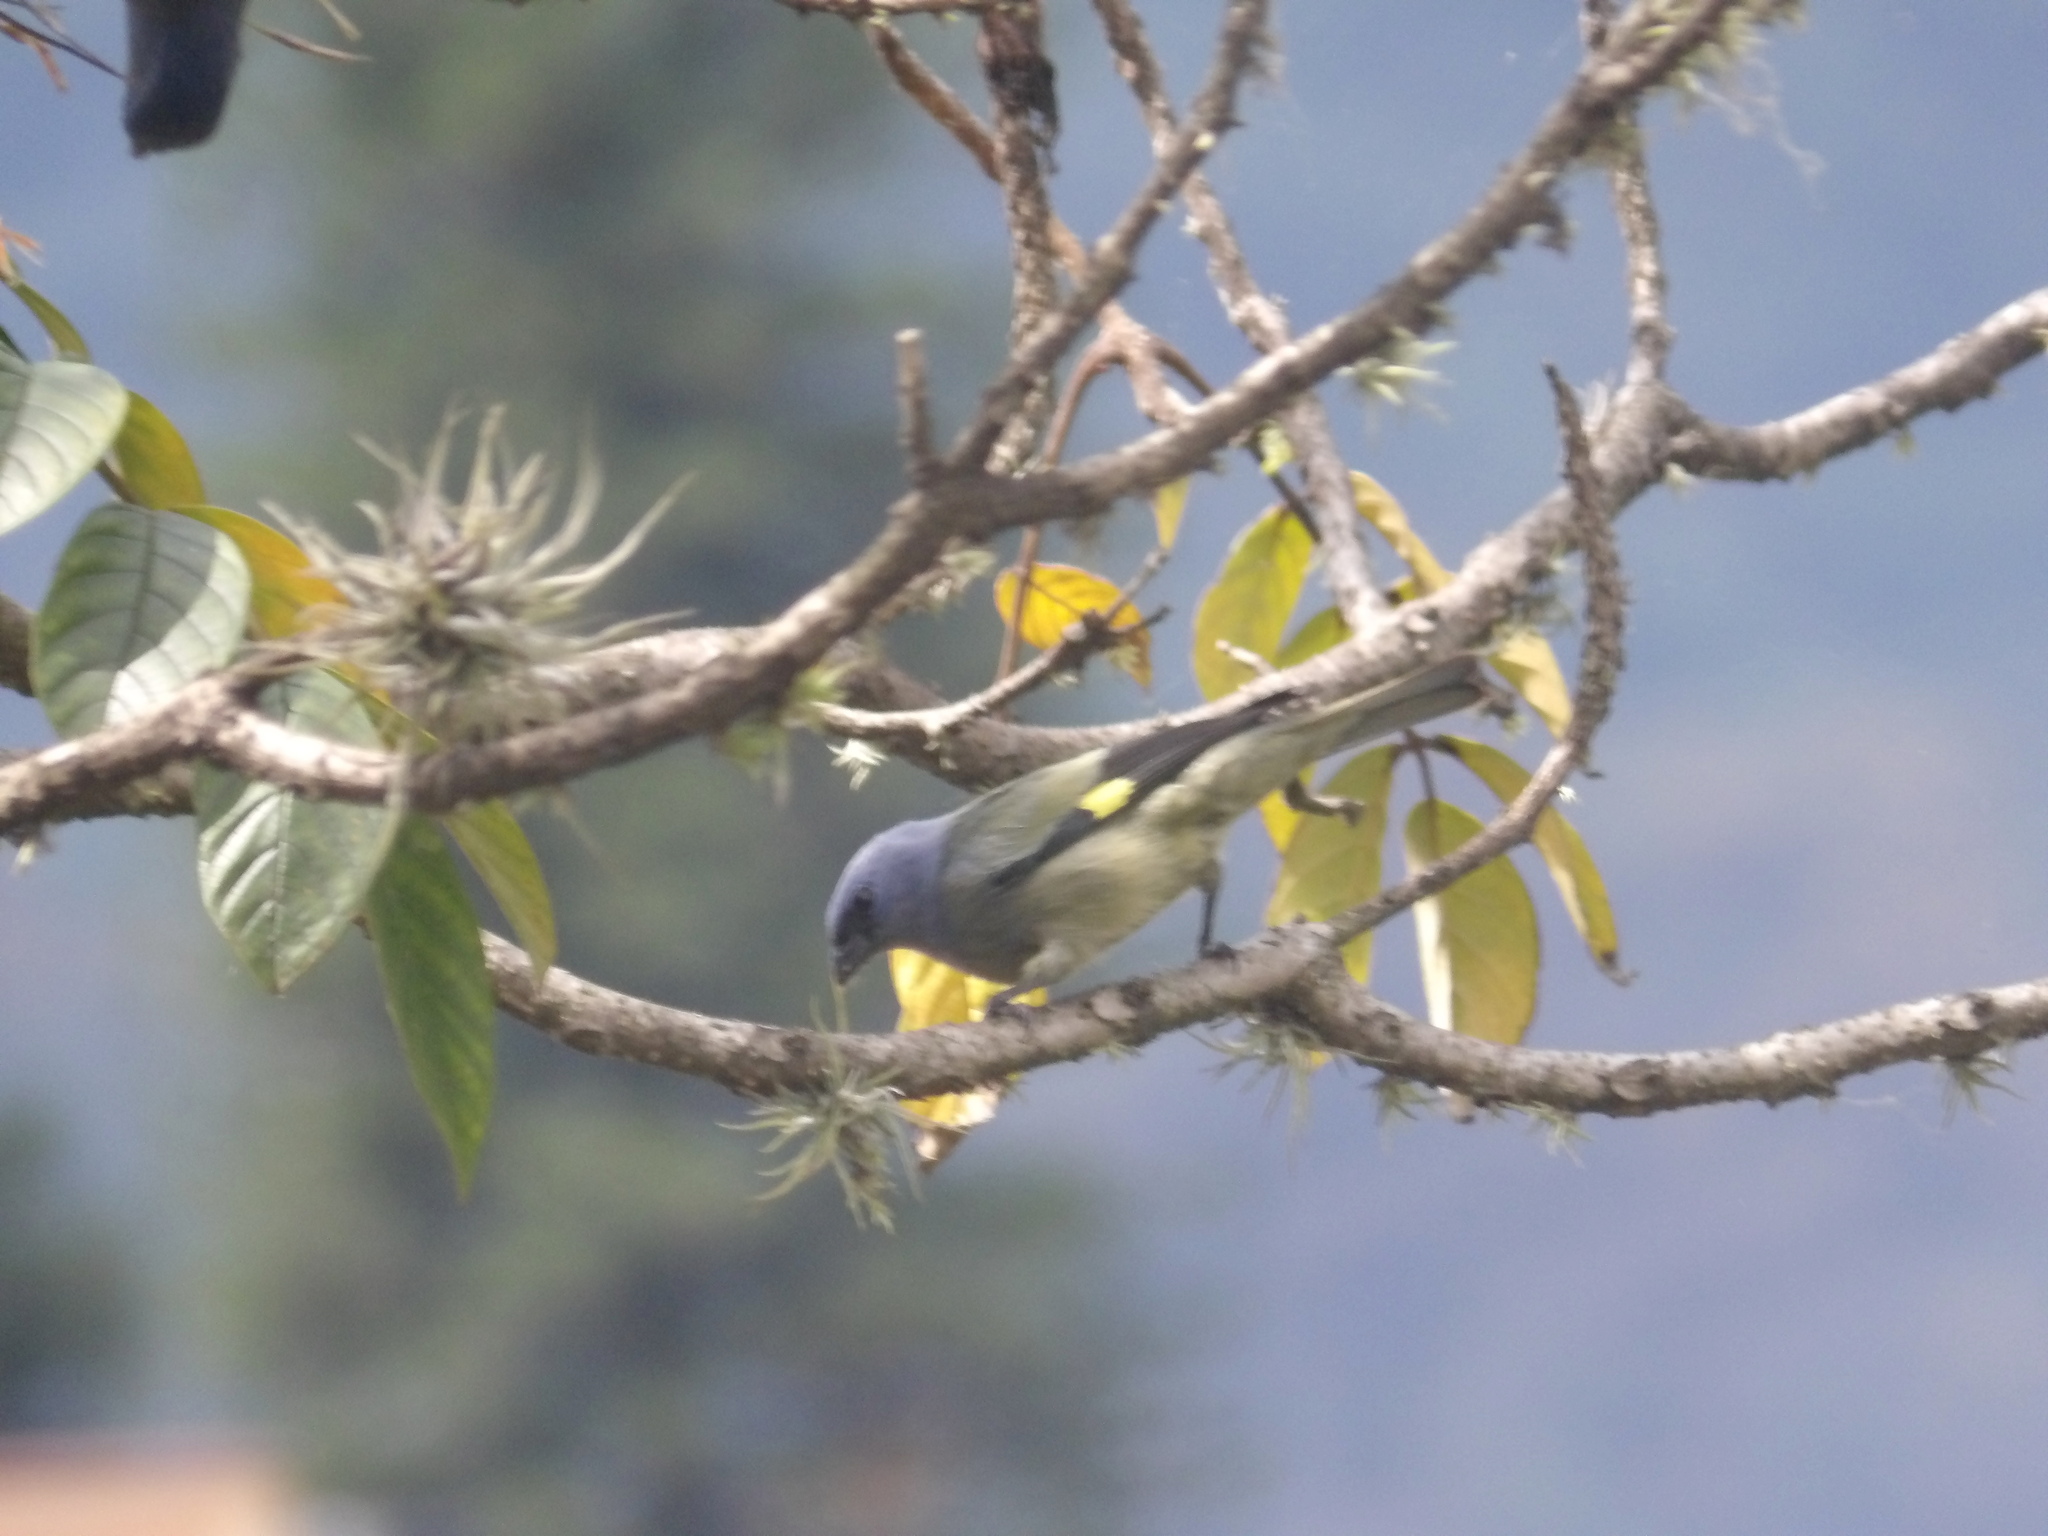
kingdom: Animalia
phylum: Chordata
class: Aves
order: Passeriformes
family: Thraupidae
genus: Thraupis
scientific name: Thraupis abbas
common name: Yellow-winged tanager
